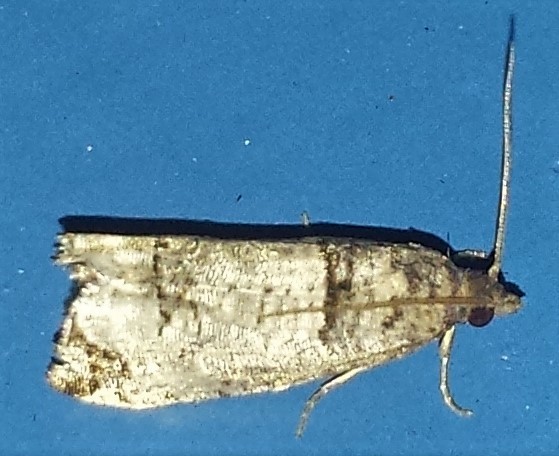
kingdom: Animalia
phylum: Arthropoda
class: Insecta
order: Lepidoptera
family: Tortricidae
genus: Notocelia
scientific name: Notocelia culminana
